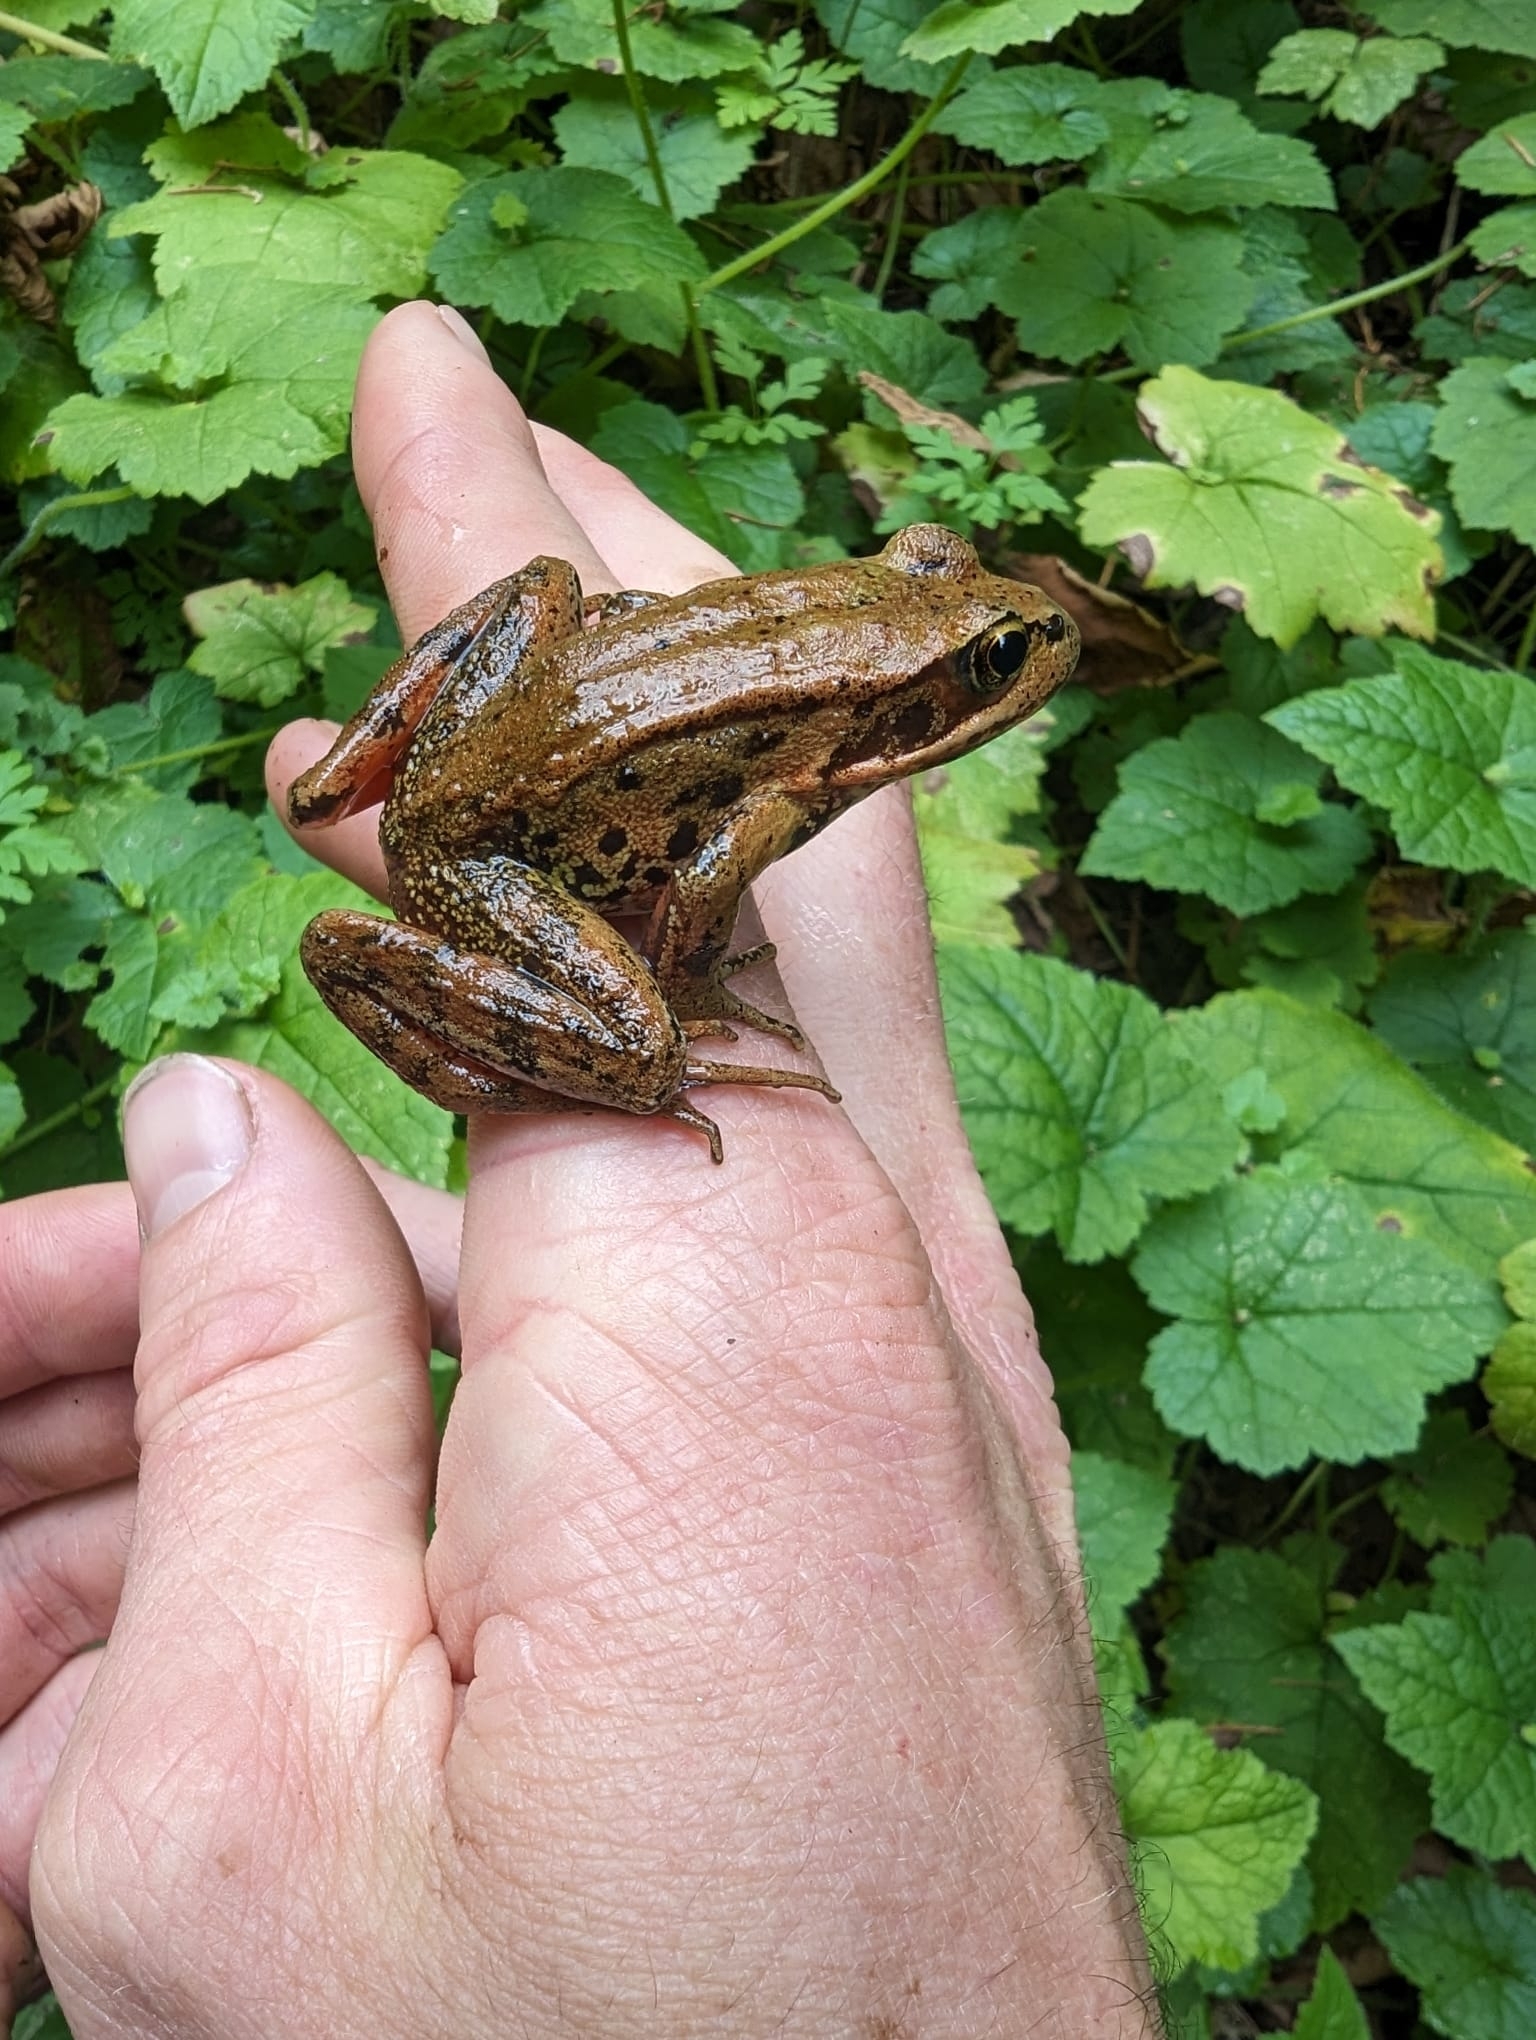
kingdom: Animalia
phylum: Chordata
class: Amphibia
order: Anura
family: Ranidae
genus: Rana
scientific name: Rana aurora
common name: Red-legged frog
